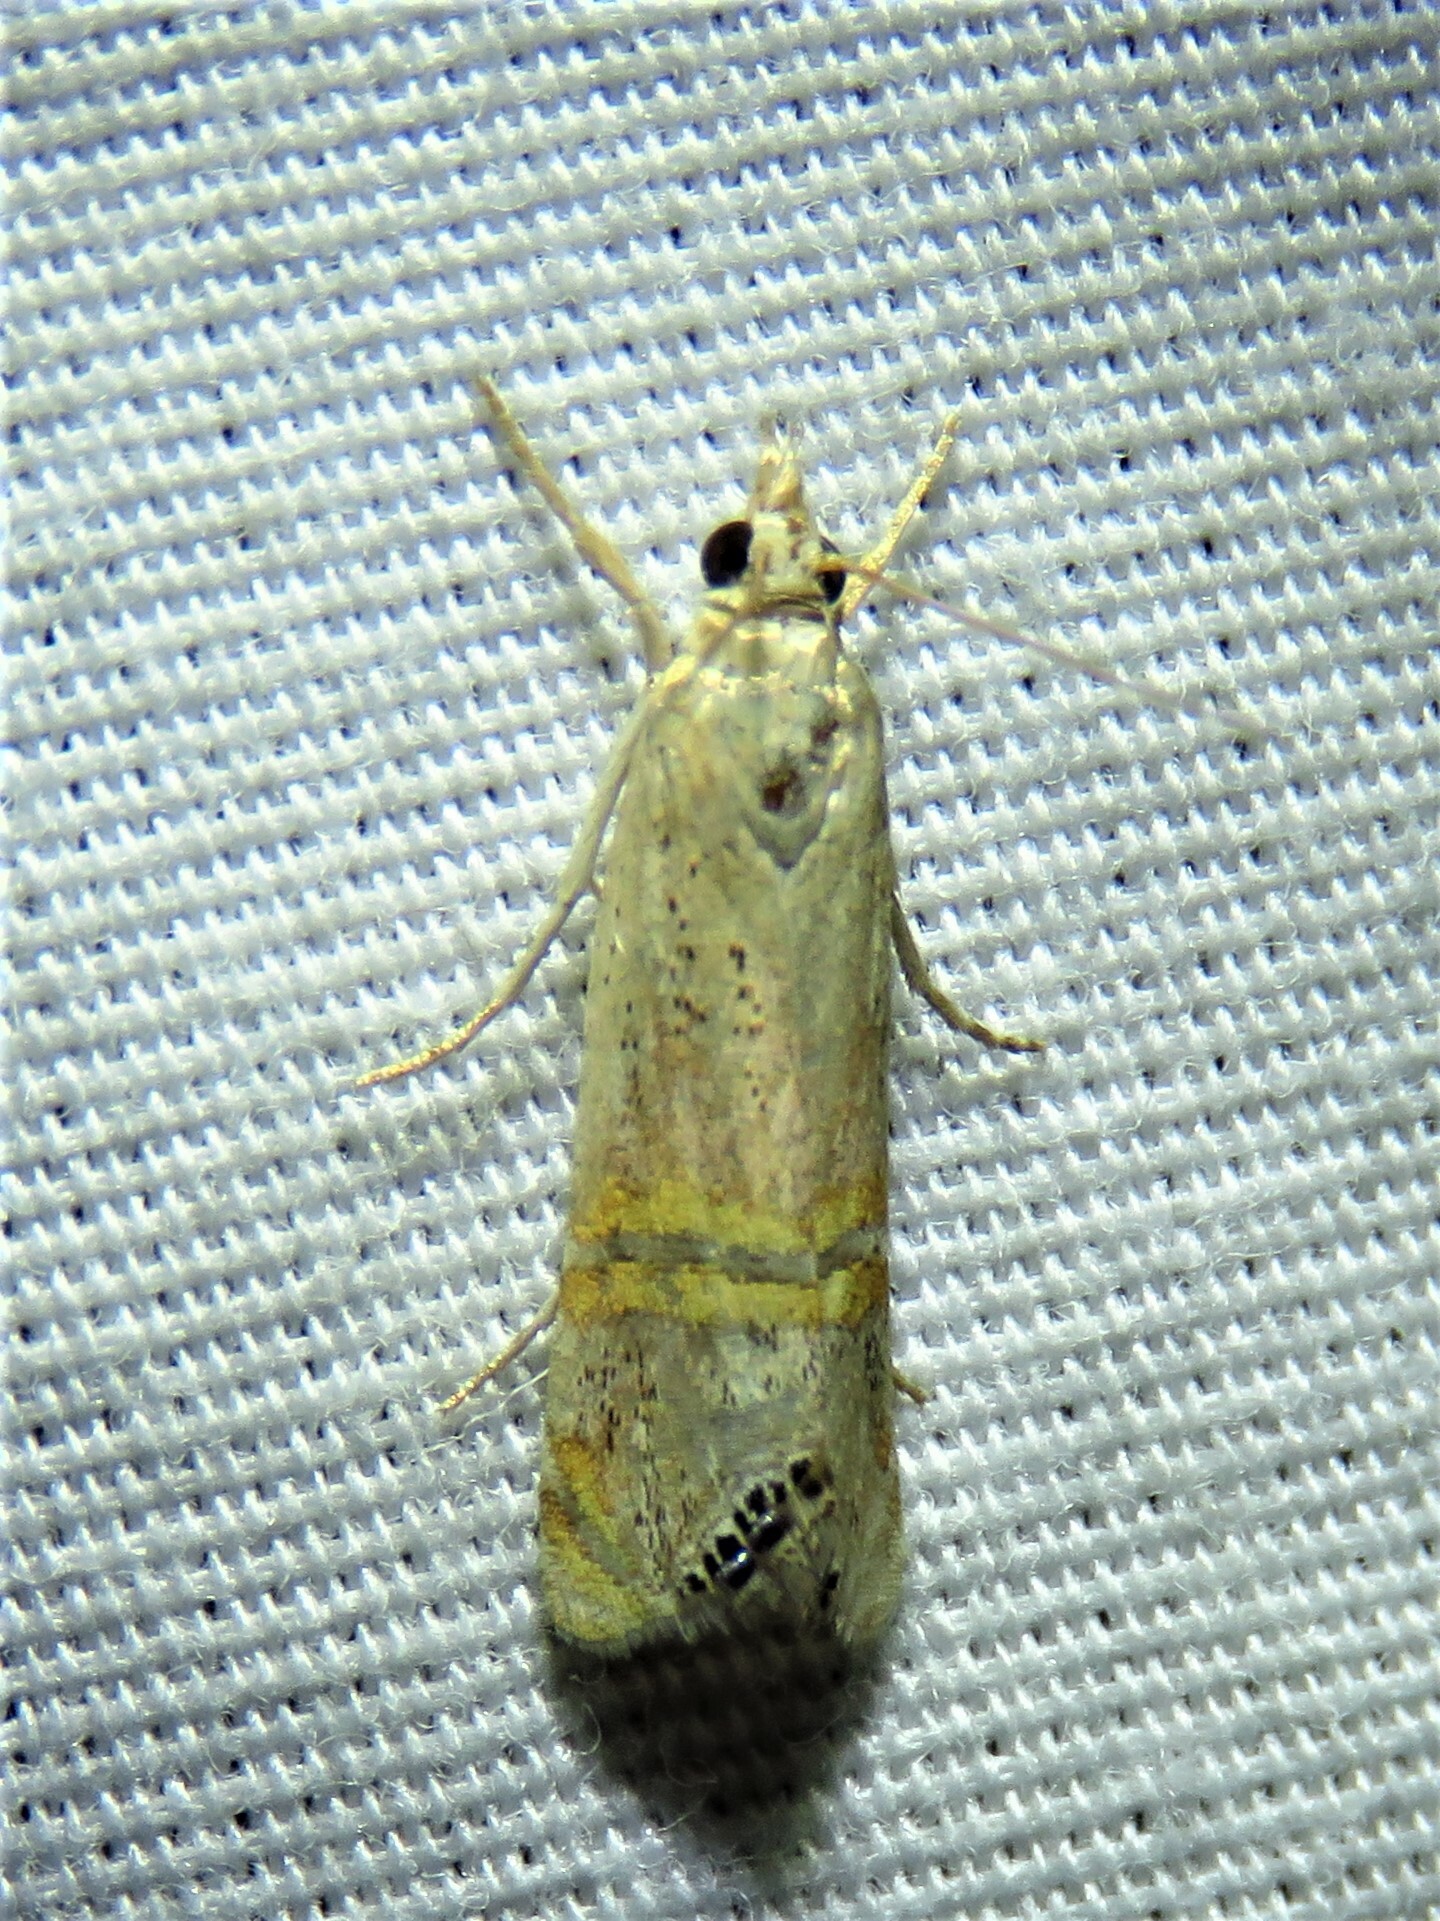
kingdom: Animalia
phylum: Arthropoda
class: Insecta
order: Lepidoptera
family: Crambidae
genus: Euchromius
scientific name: Euchromius ocellea
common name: Necklace veneer moth
